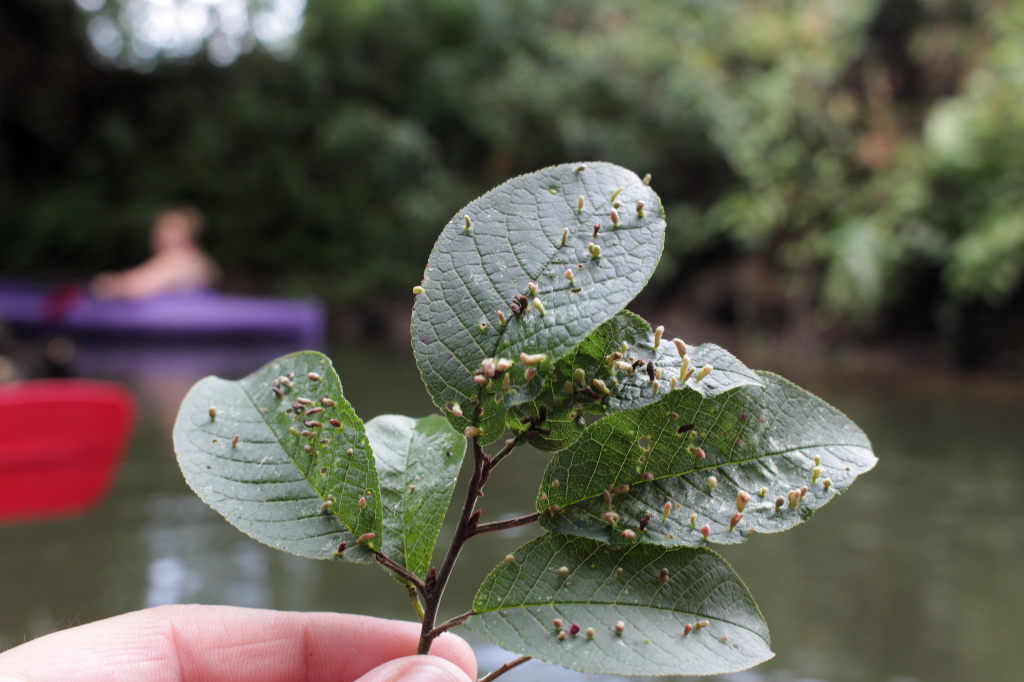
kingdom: Animalia
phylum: Arthropoda
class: Arachnida
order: Trombidiformes
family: Eriophyidae
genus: Phyllocoptes
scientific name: Phyllocoptes eupadi
